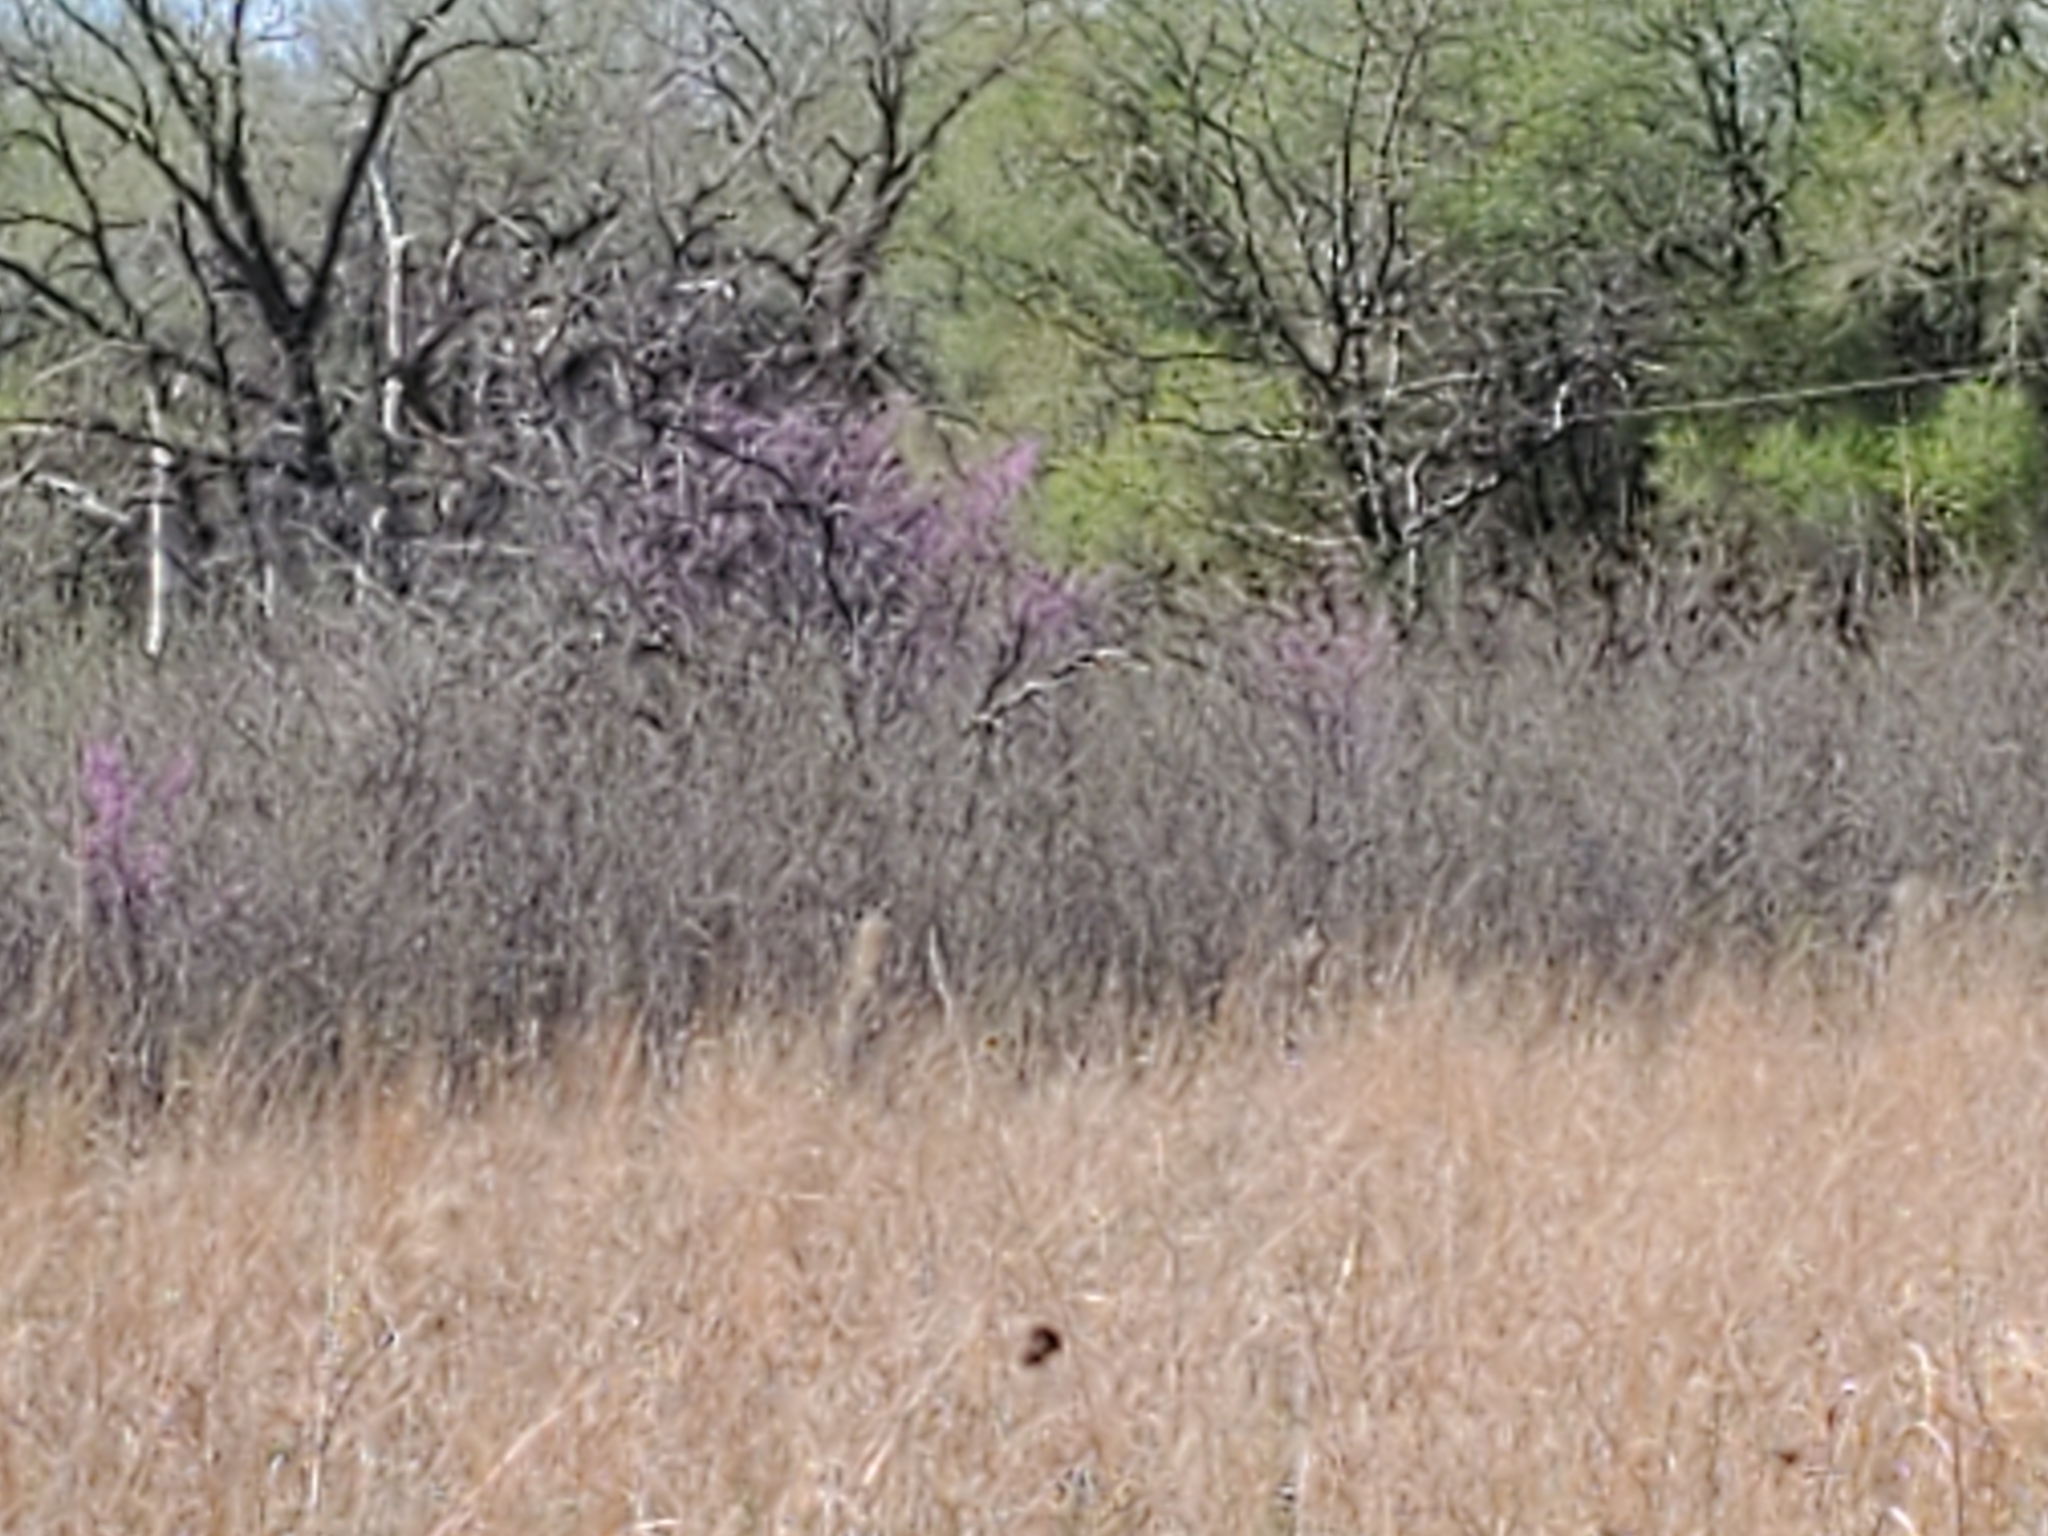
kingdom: Plantae
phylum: Tracheophyta
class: Magnoliopsida
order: Fabales
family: Fabaceae
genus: Cercis
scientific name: Cercis canadensis
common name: Eastern redbud
